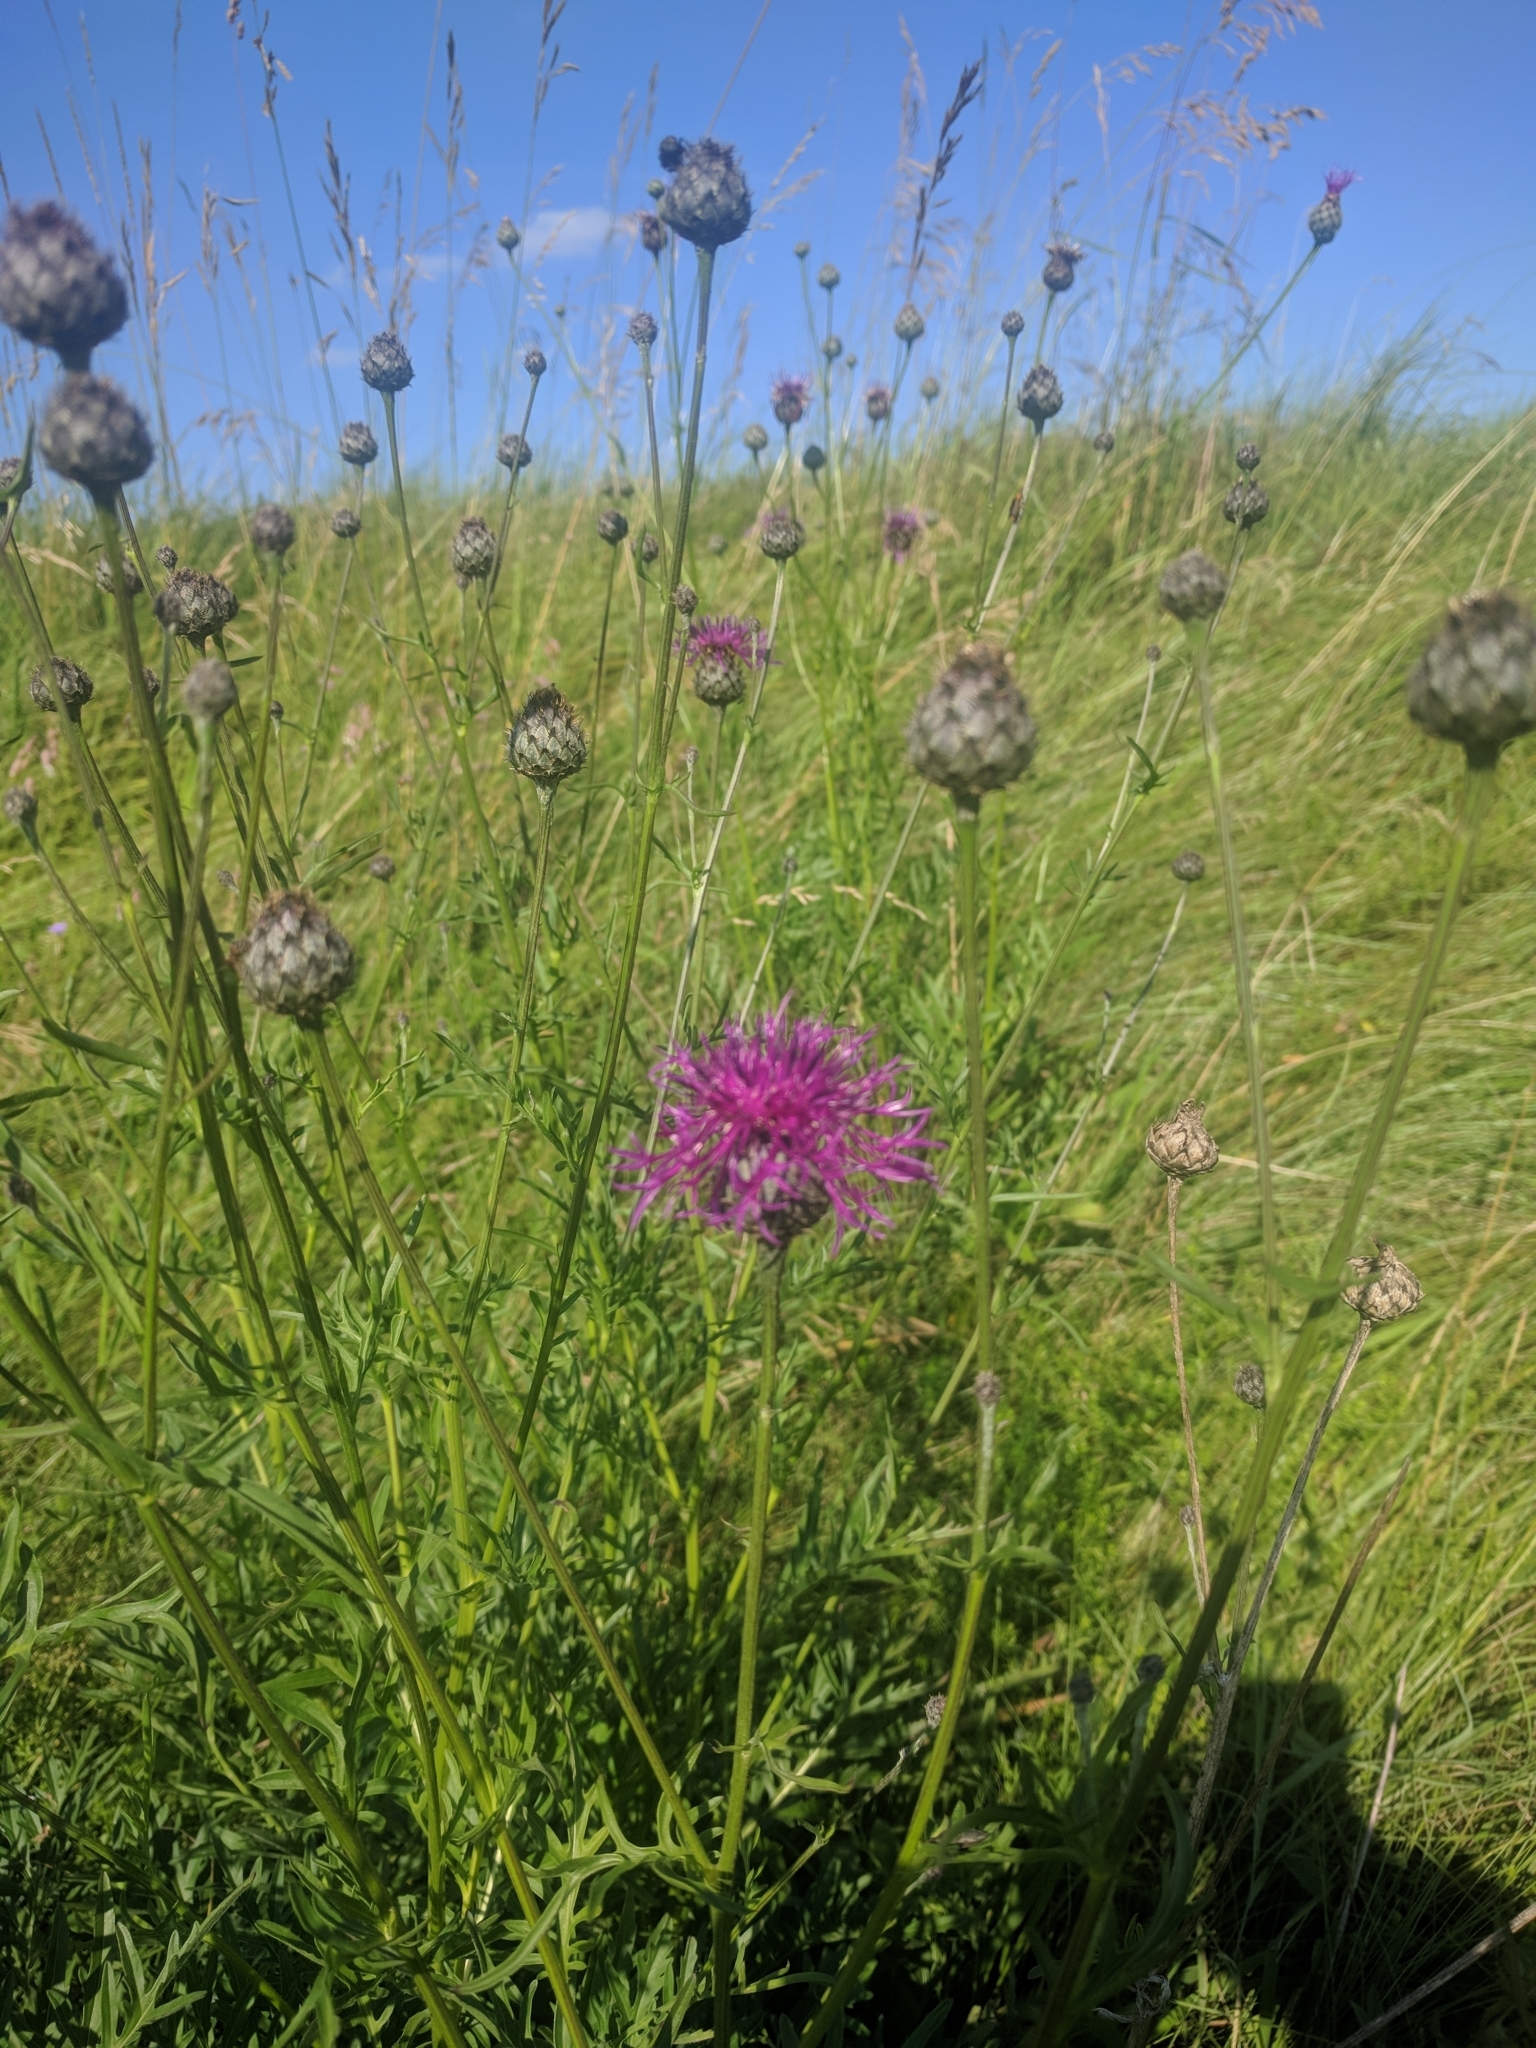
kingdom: Plantae
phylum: Tracheophyta
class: Magnoliopsida
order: Asterales
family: Asteraceae
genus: Centaurea
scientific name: Centaurea scabiosa
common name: Greater knapweed
